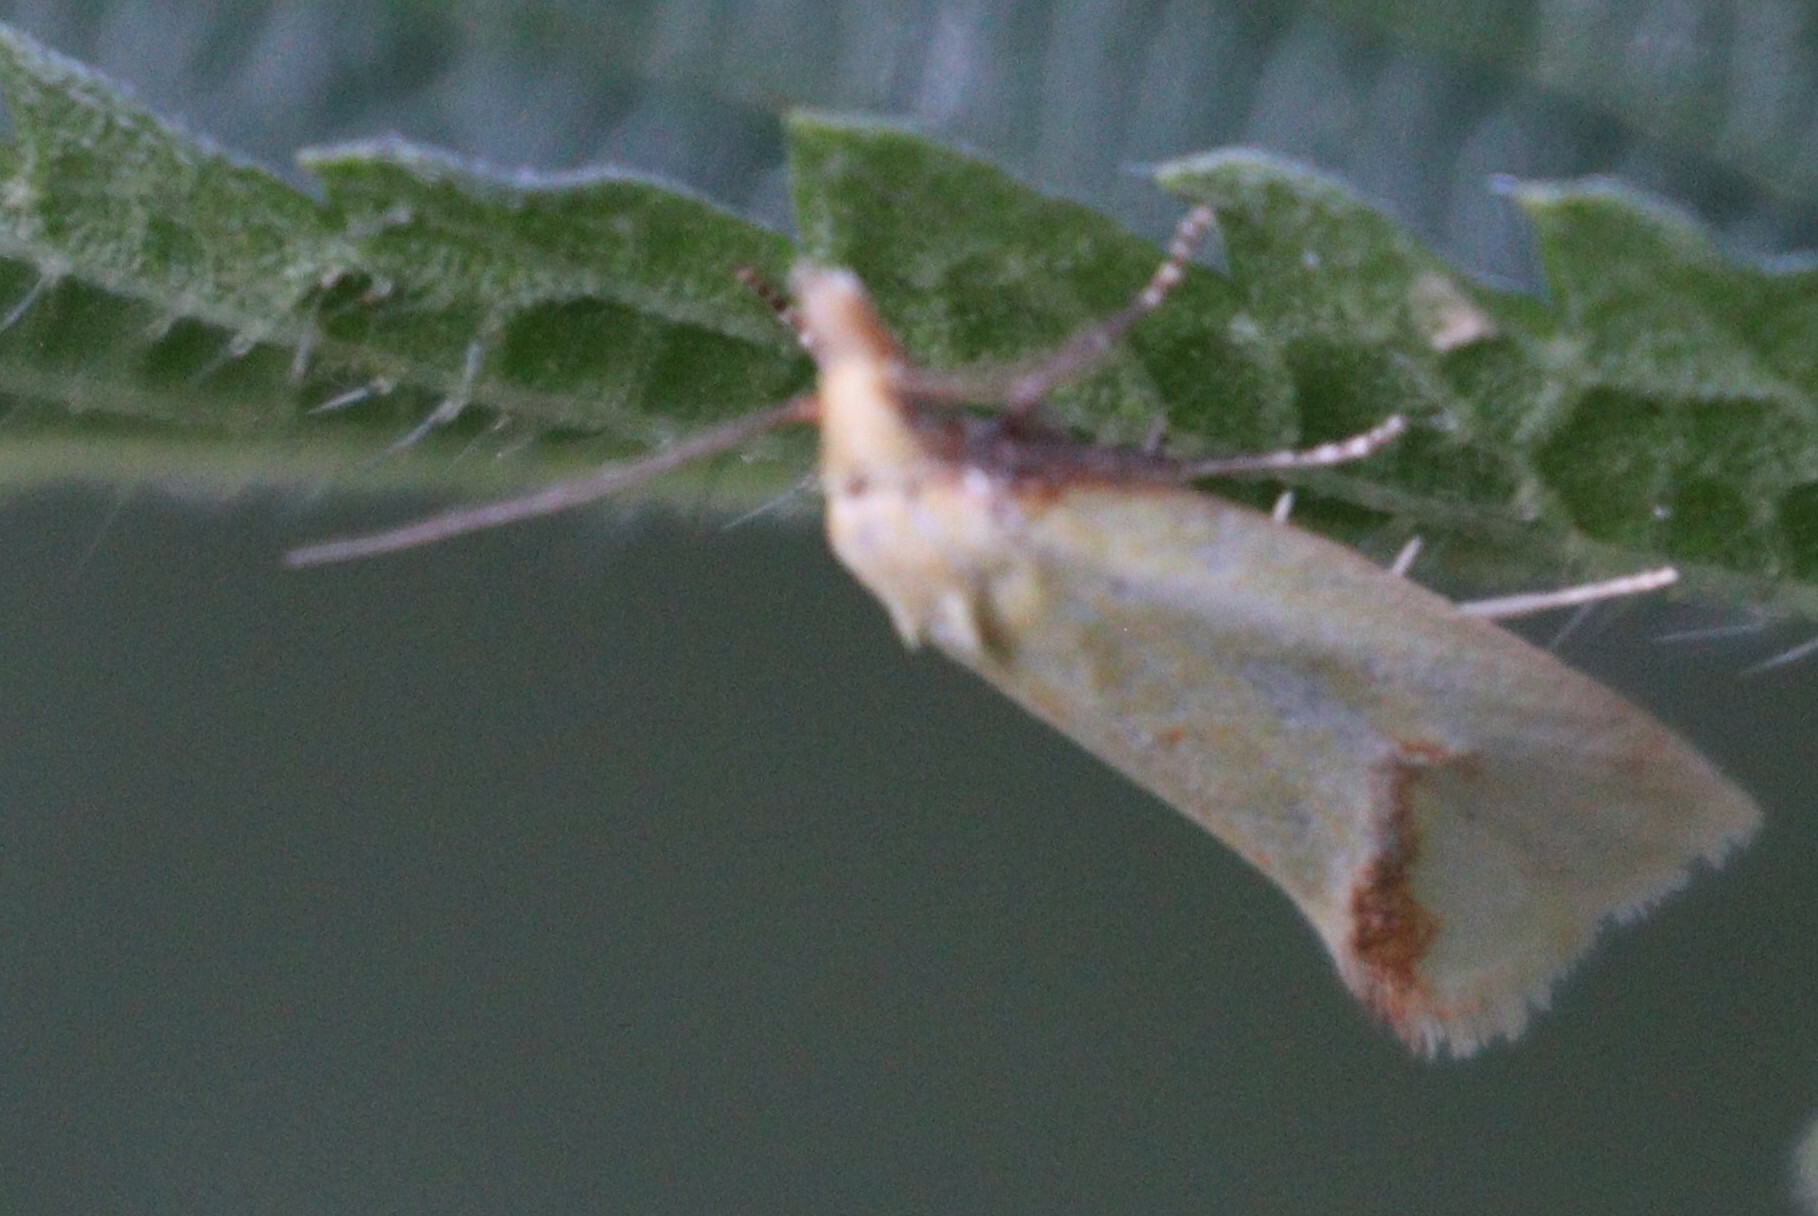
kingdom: Animalia
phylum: Arthropoda
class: Insecta
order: Lepidoptera
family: Tortricidae
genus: Agapeta
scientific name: Agapeta hamana
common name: Common yellow conch
